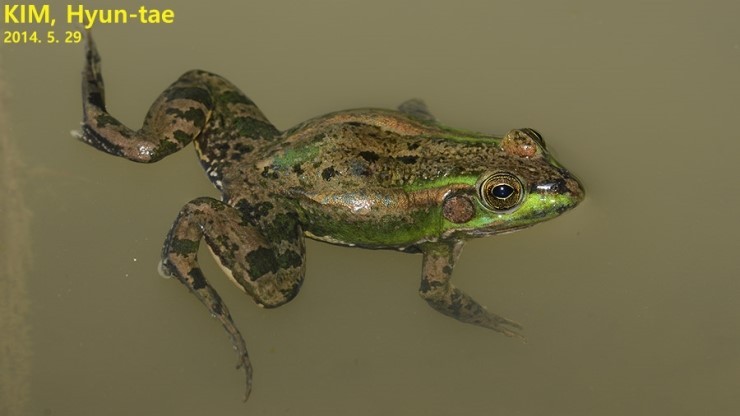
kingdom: Animalia
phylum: Chordata
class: Amphibia
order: Anura
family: Ranidae
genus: Pelophylax
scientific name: Pelophylax chosenicus
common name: Gold-spotted pond frog
